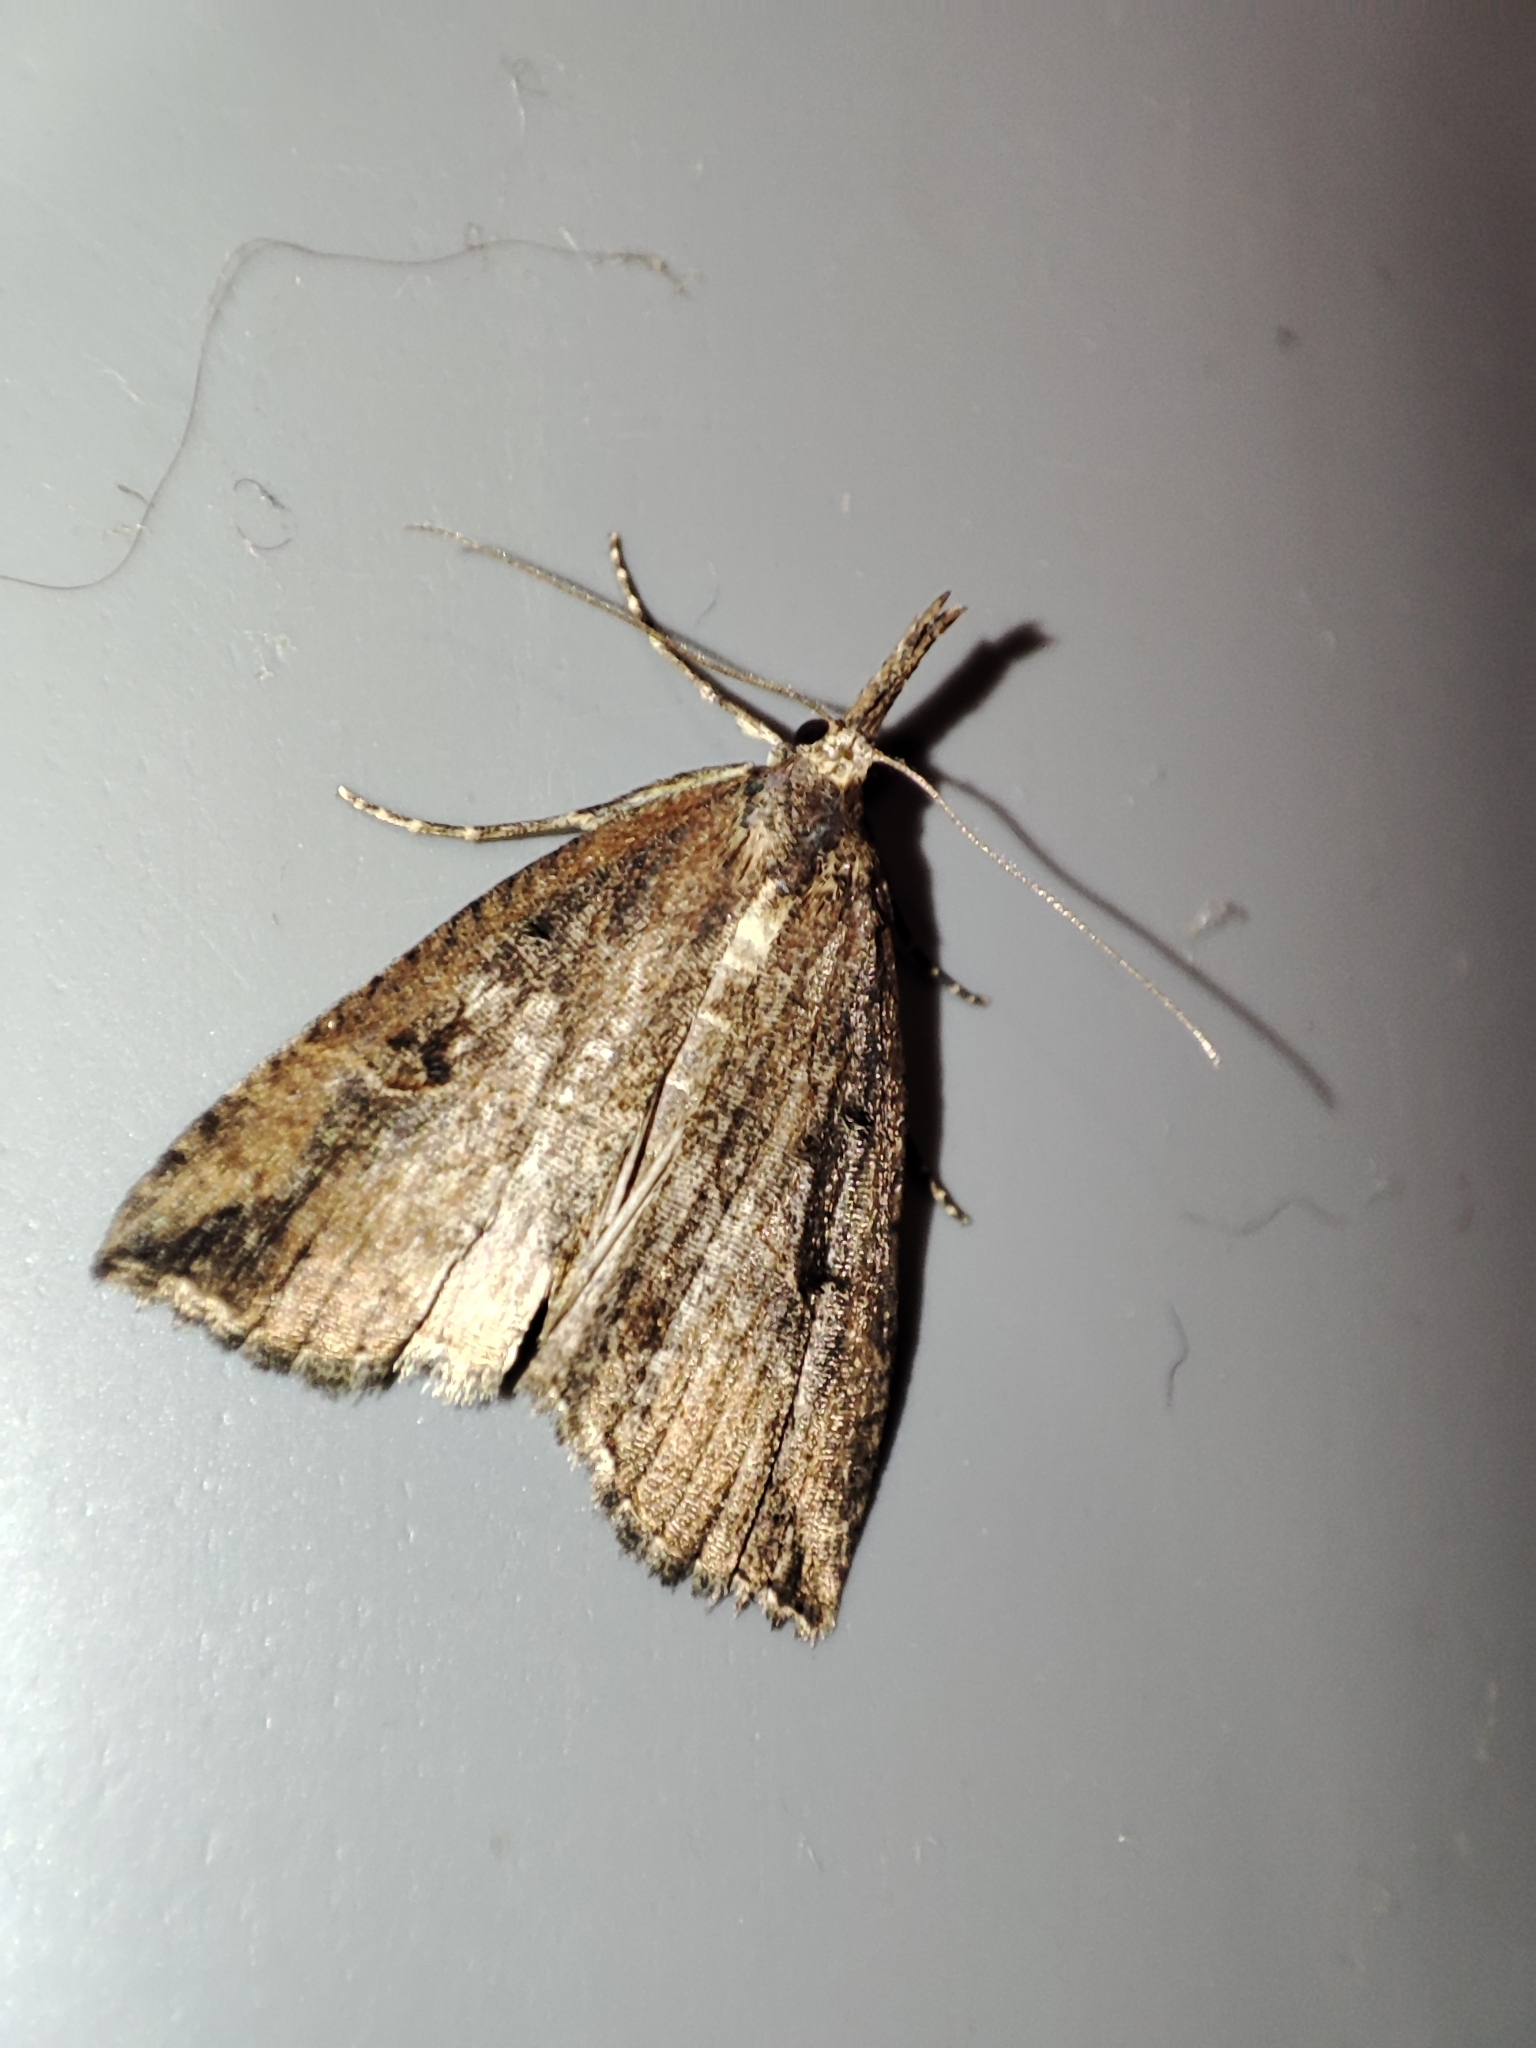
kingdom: Animalia
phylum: Arthropoda
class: Insecta
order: Lepidoptera
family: Erebidae
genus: Hypena
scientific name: Hypena rostralis
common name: Buttoned snout
